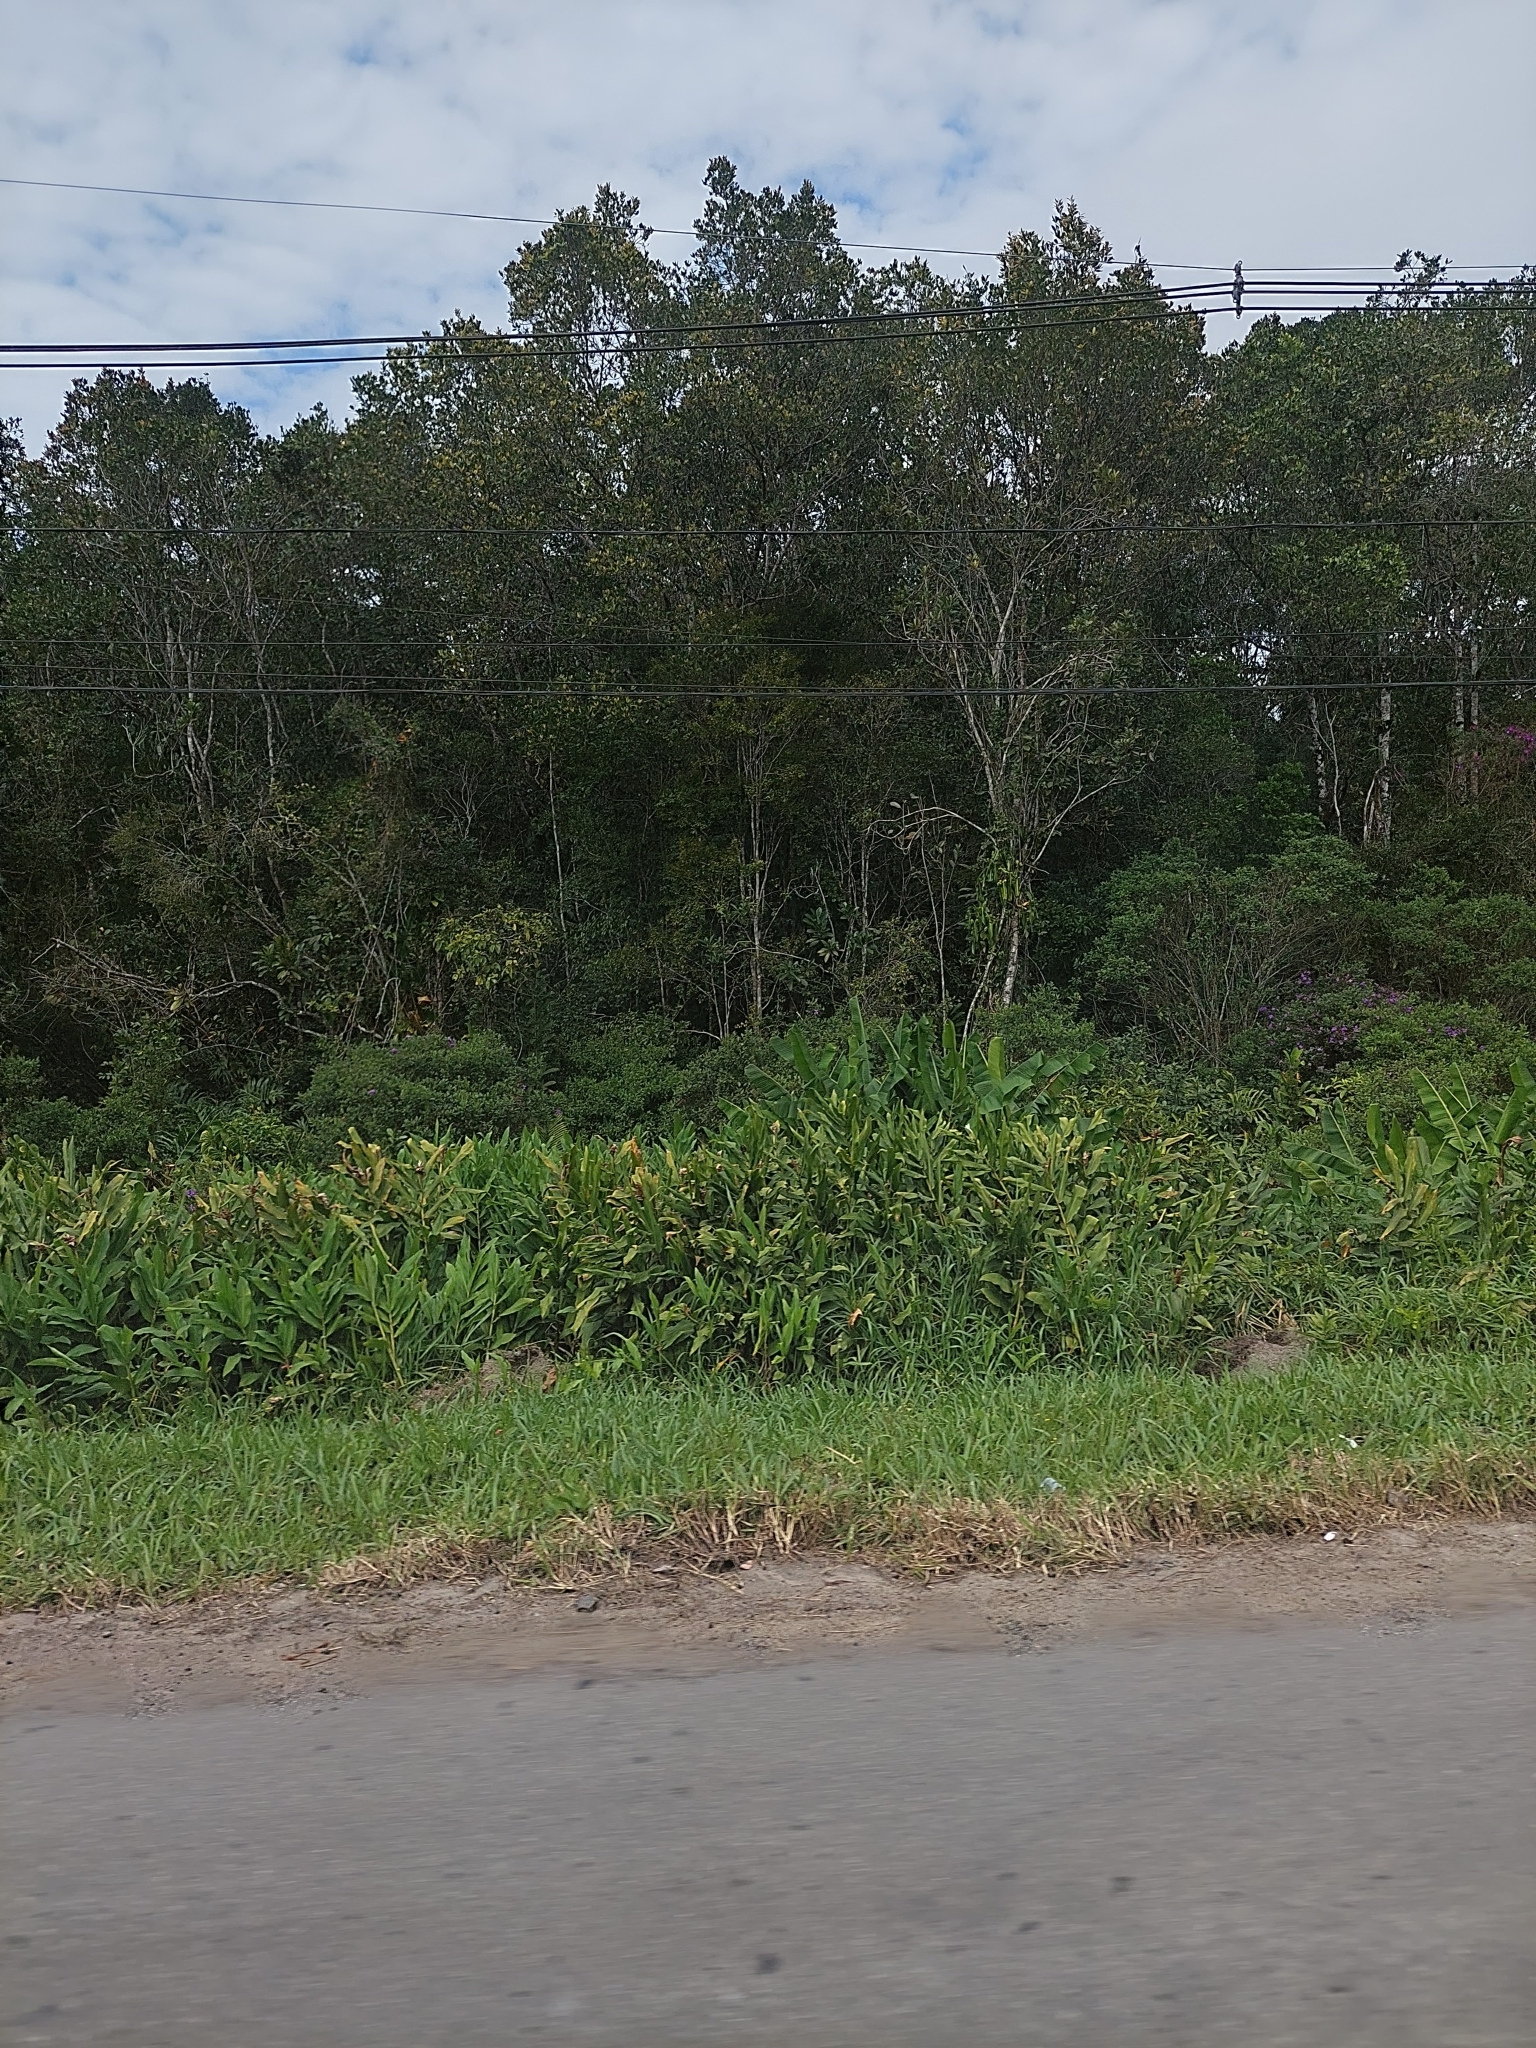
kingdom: Plantae
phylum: Tracheophyta
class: Liliopsida
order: Zingiberales
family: Zingiberaceae
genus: Hedychium
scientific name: Hedychium coronarium
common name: White garland-lily
